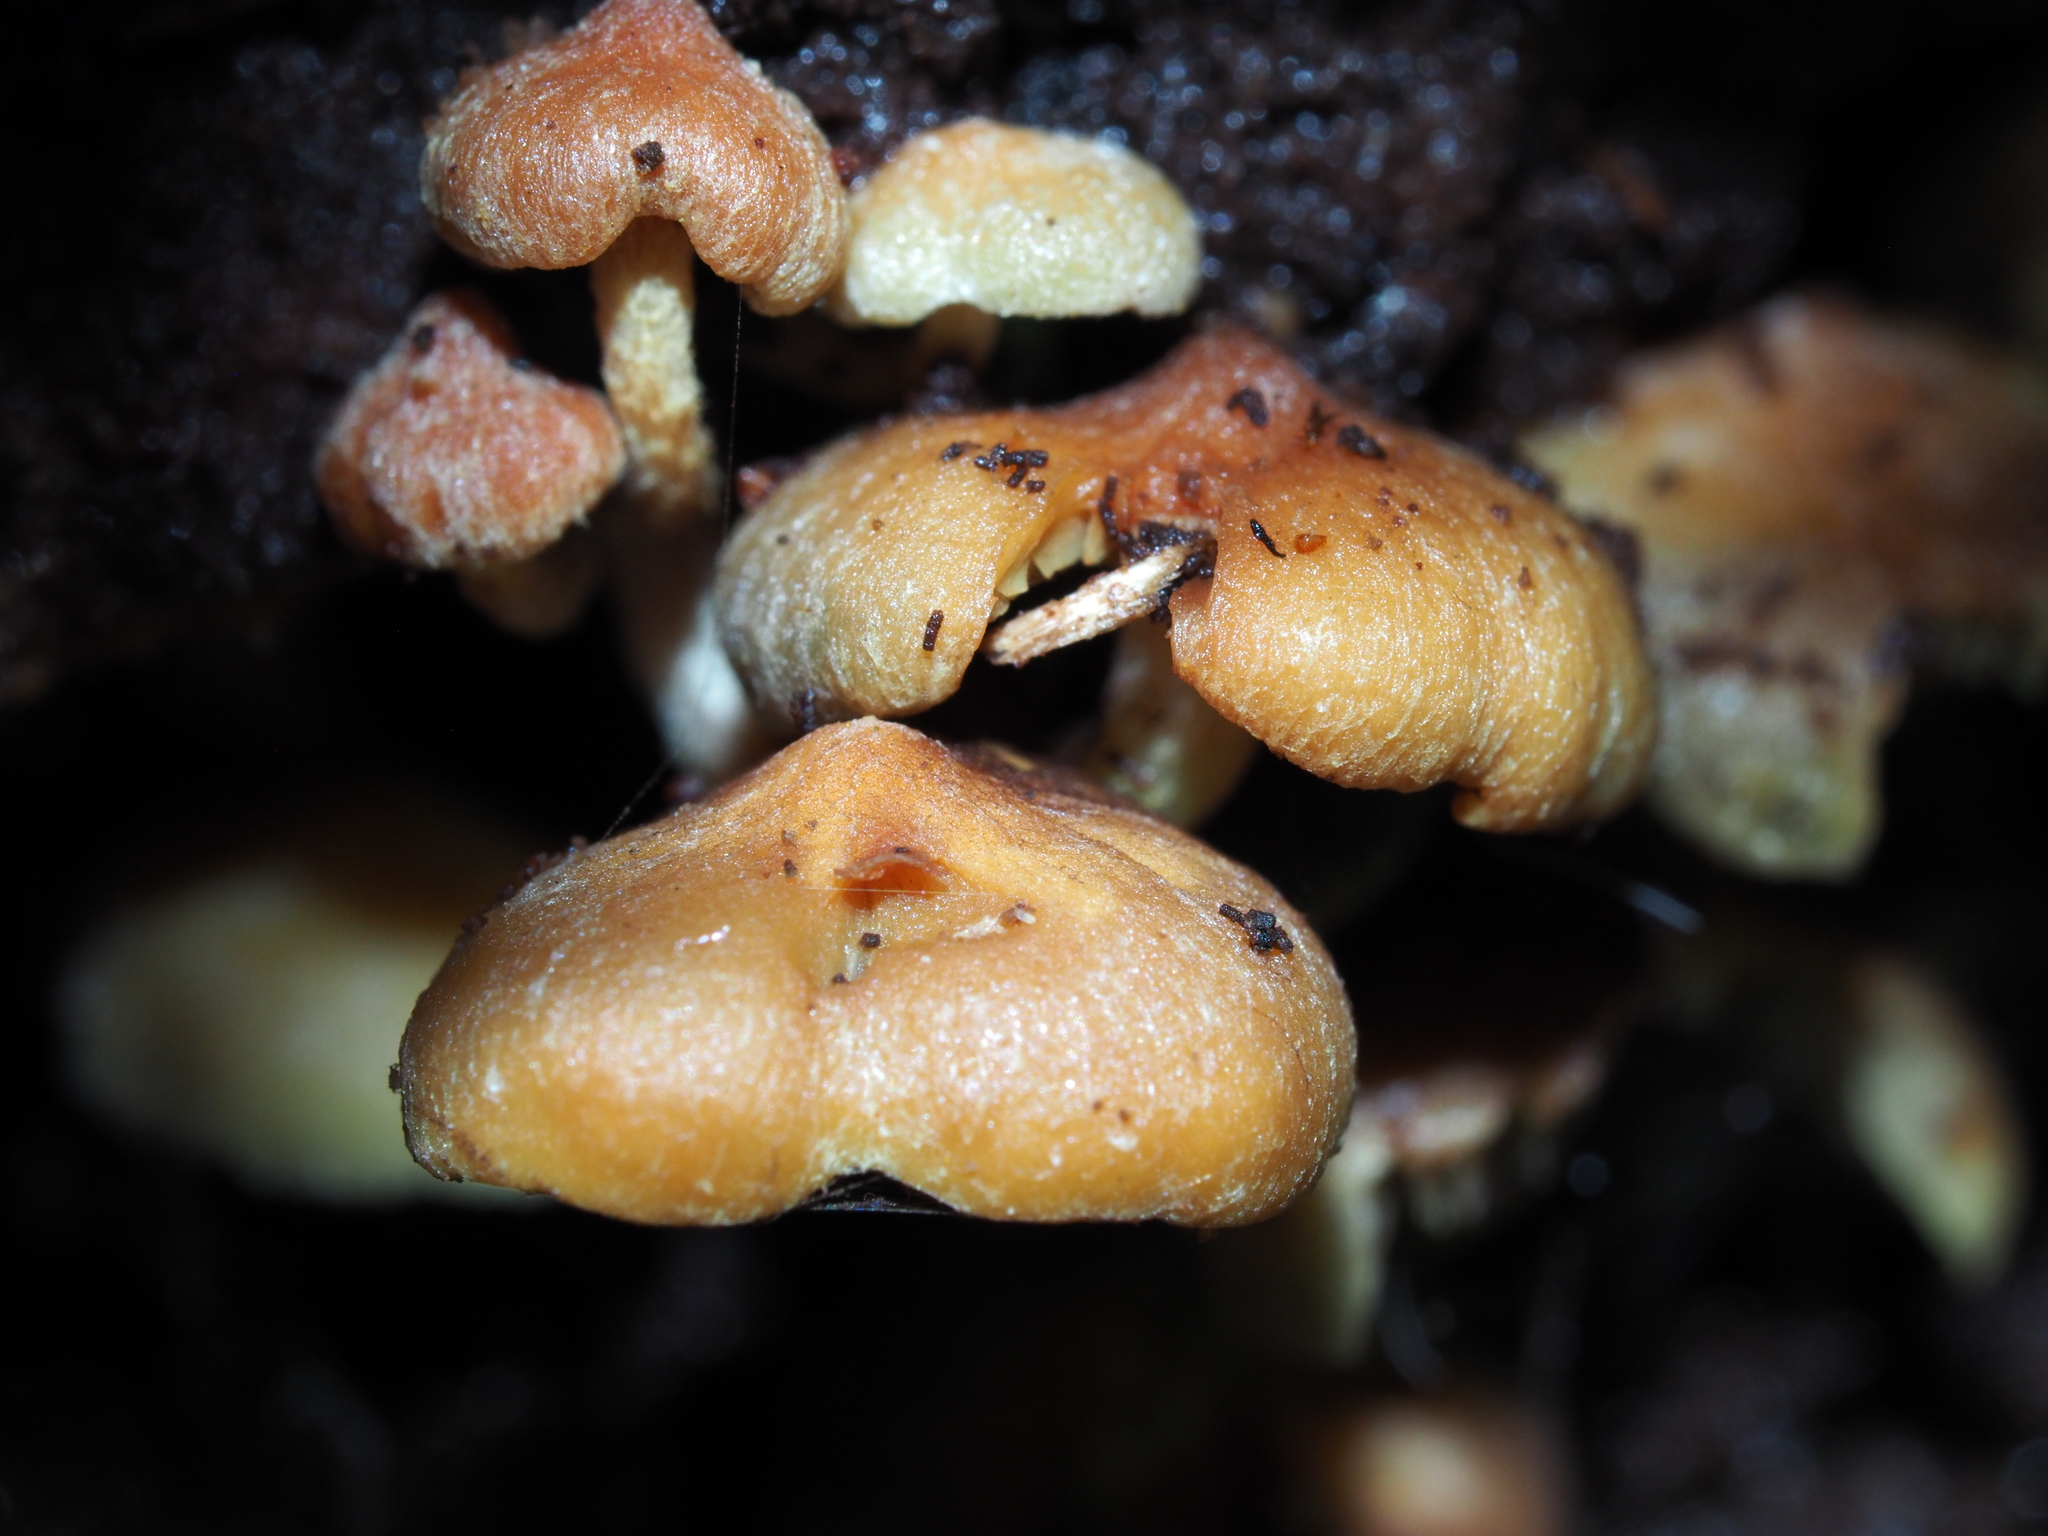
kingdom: Fungi
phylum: Basidiomycota
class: Agaricomycetes
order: Agaricales
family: Strophariaceae
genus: Hypholoma
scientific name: Hypholoma acutum
